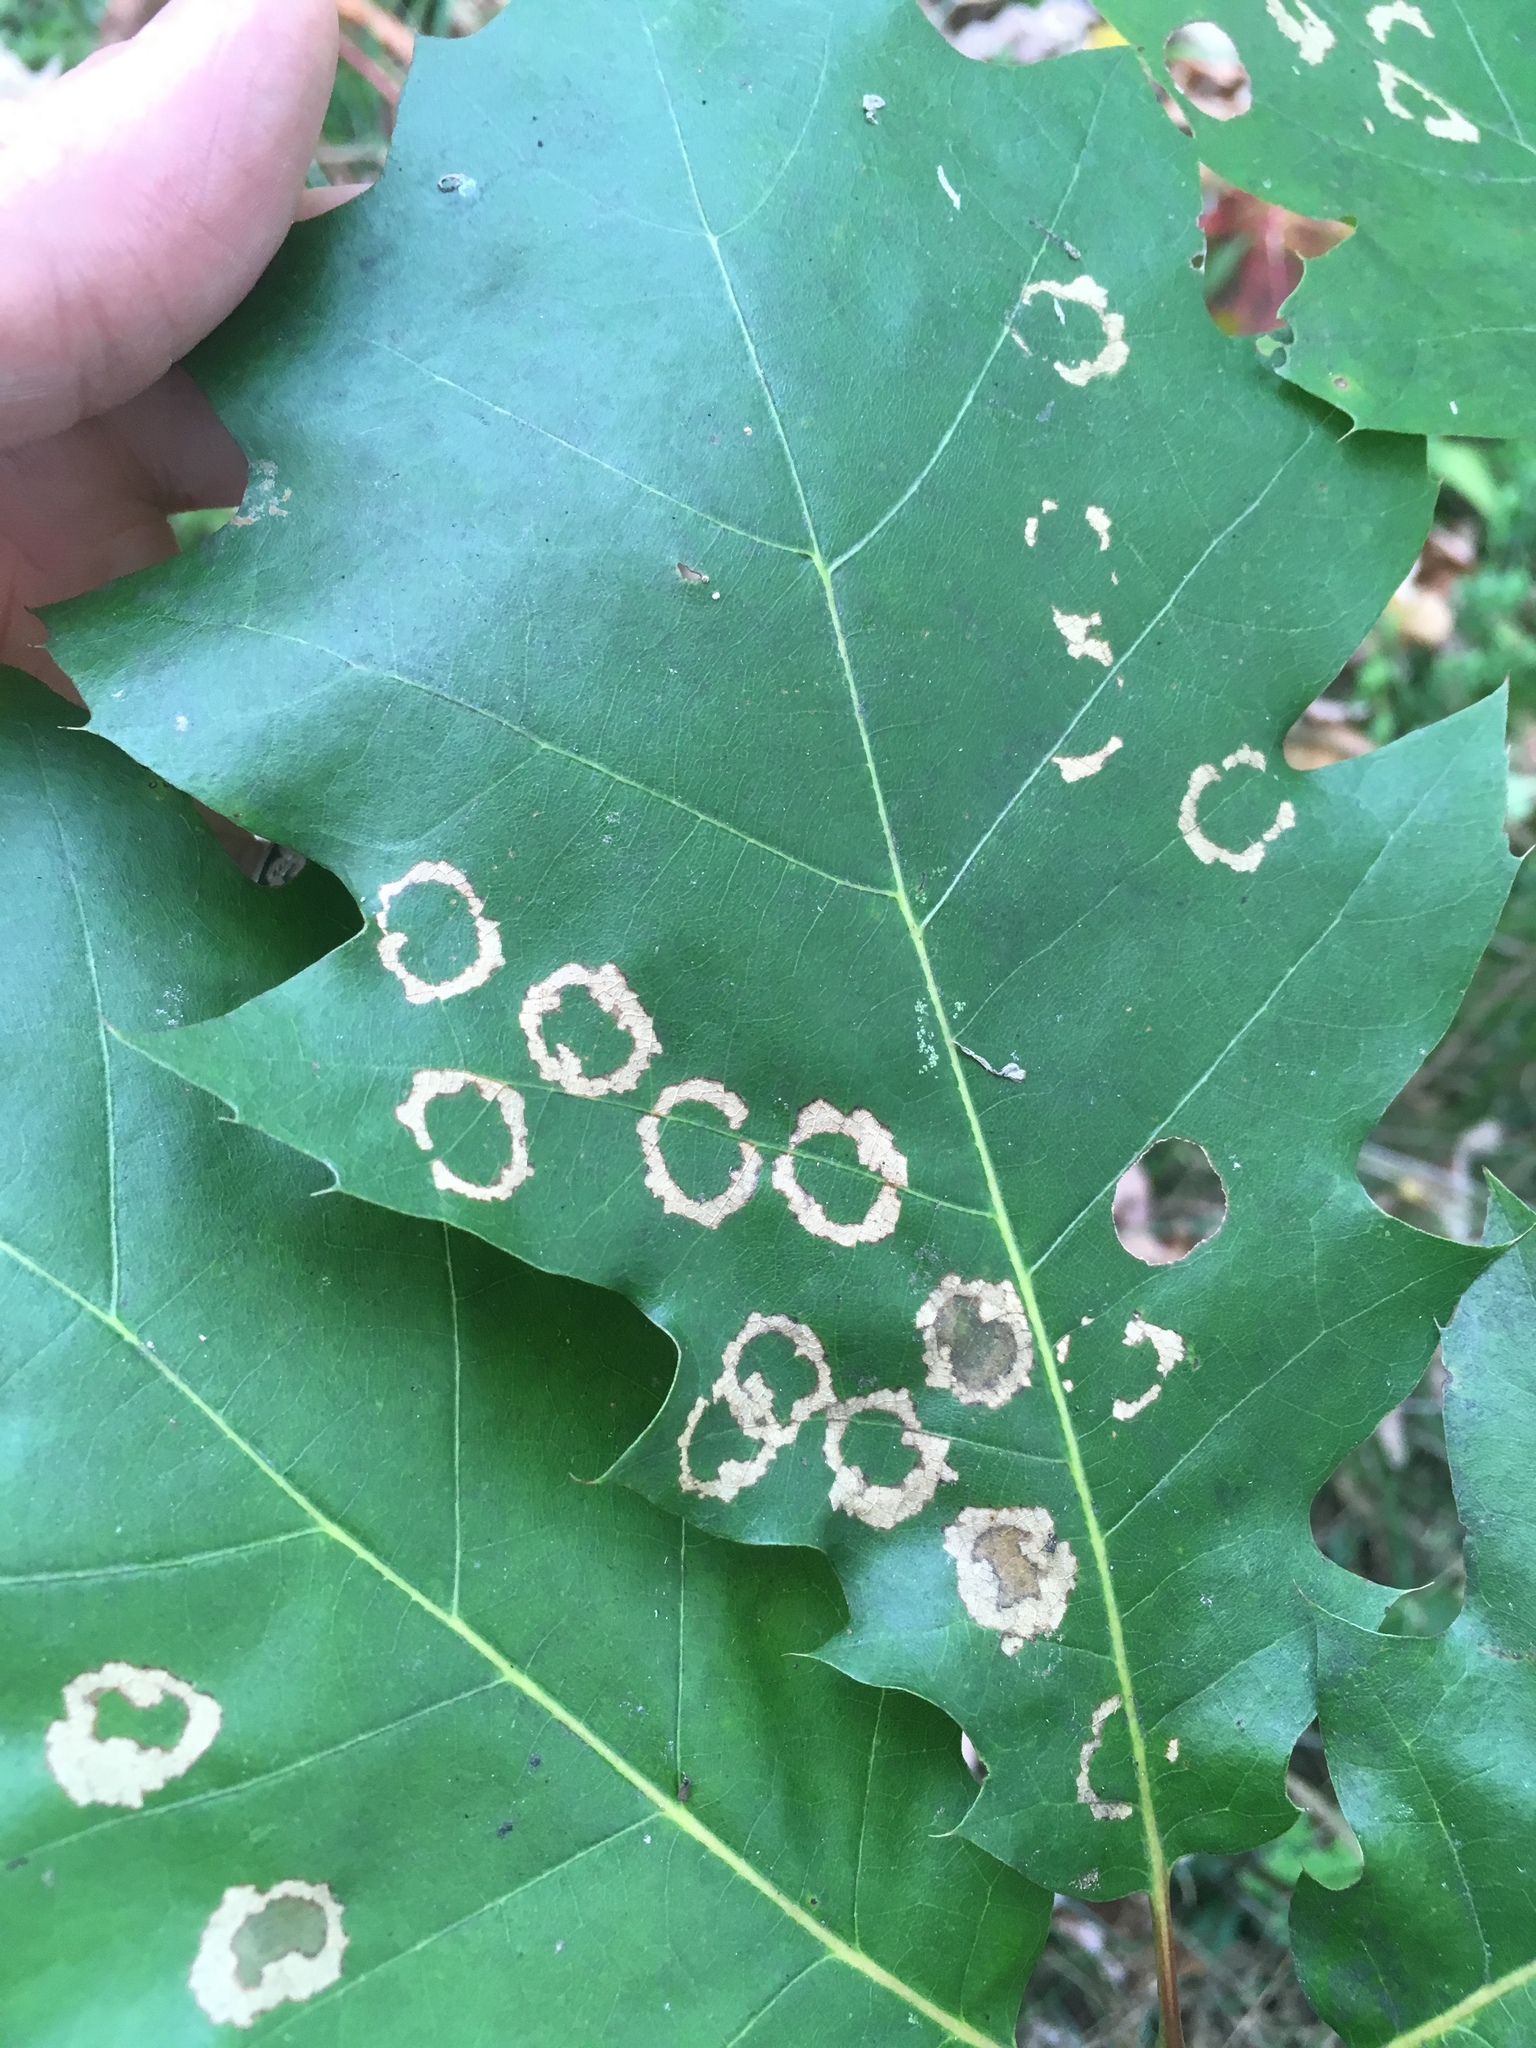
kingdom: Animalia
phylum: Arthropoda
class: Insecta
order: Lepidoptera
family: Incurvariidae
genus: Paraclemensia
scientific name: Paraclemensia acerifoliella
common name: Maple leafcutter
